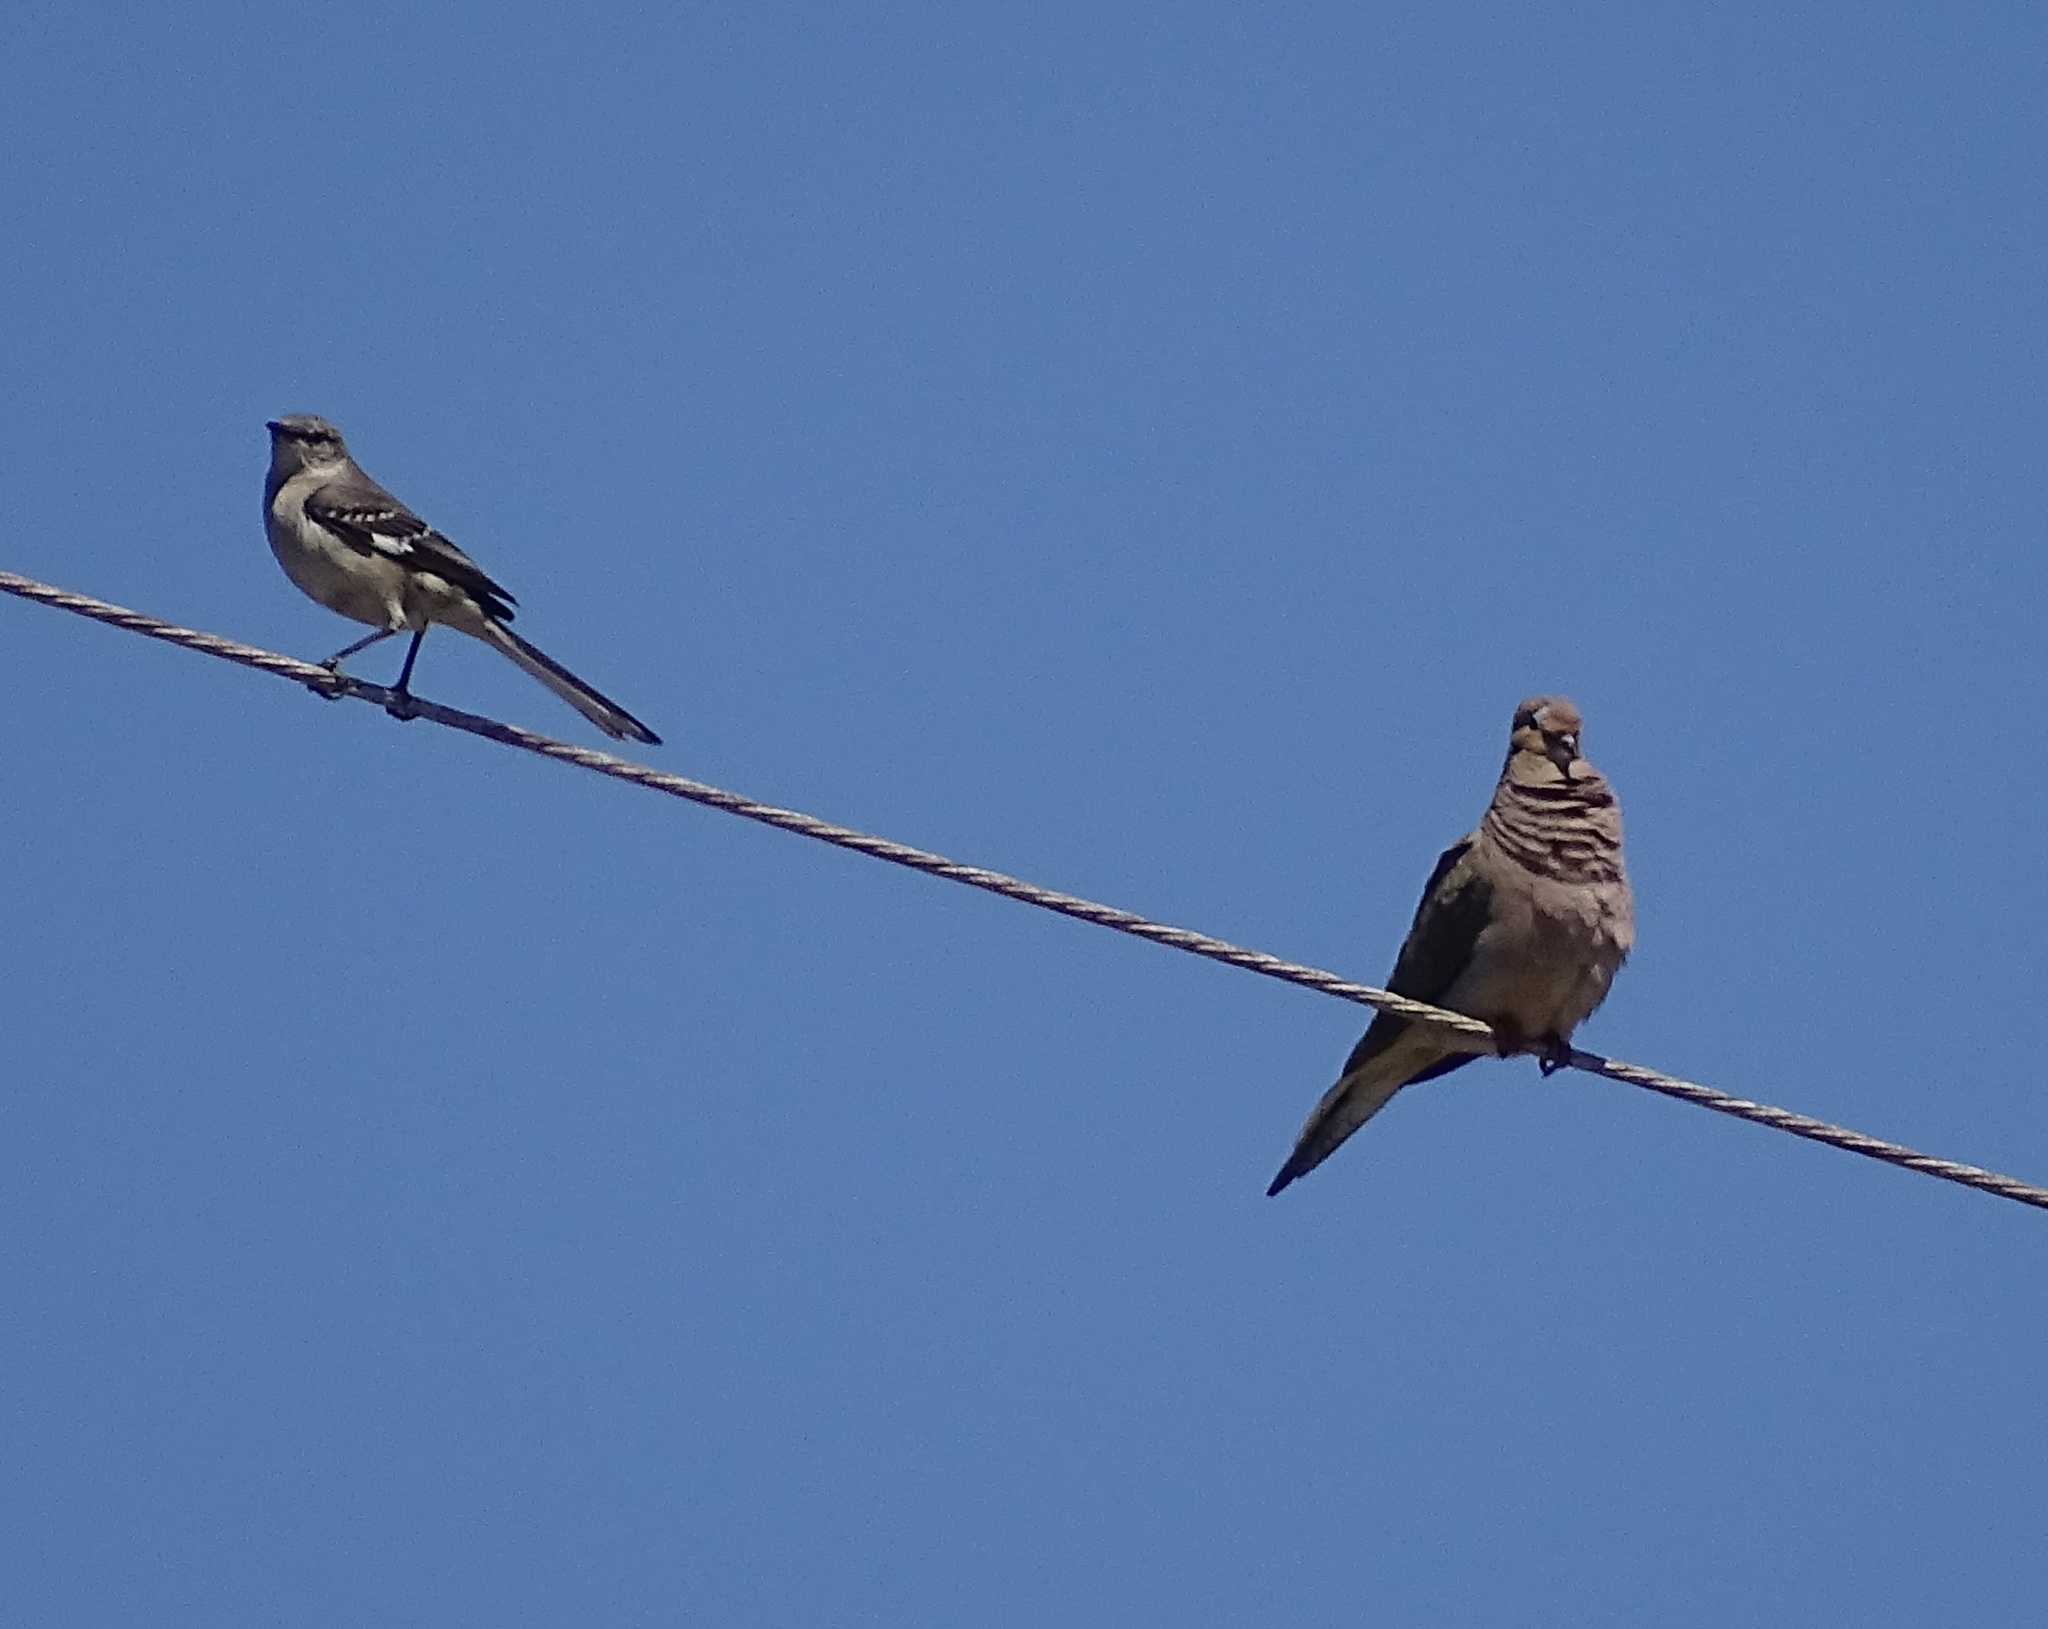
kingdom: Animalia
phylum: Chordata
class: Aves
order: Passeriformes
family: Mimidae
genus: Mimus
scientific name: Mimus polyglottos
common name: Northern mockingbird
